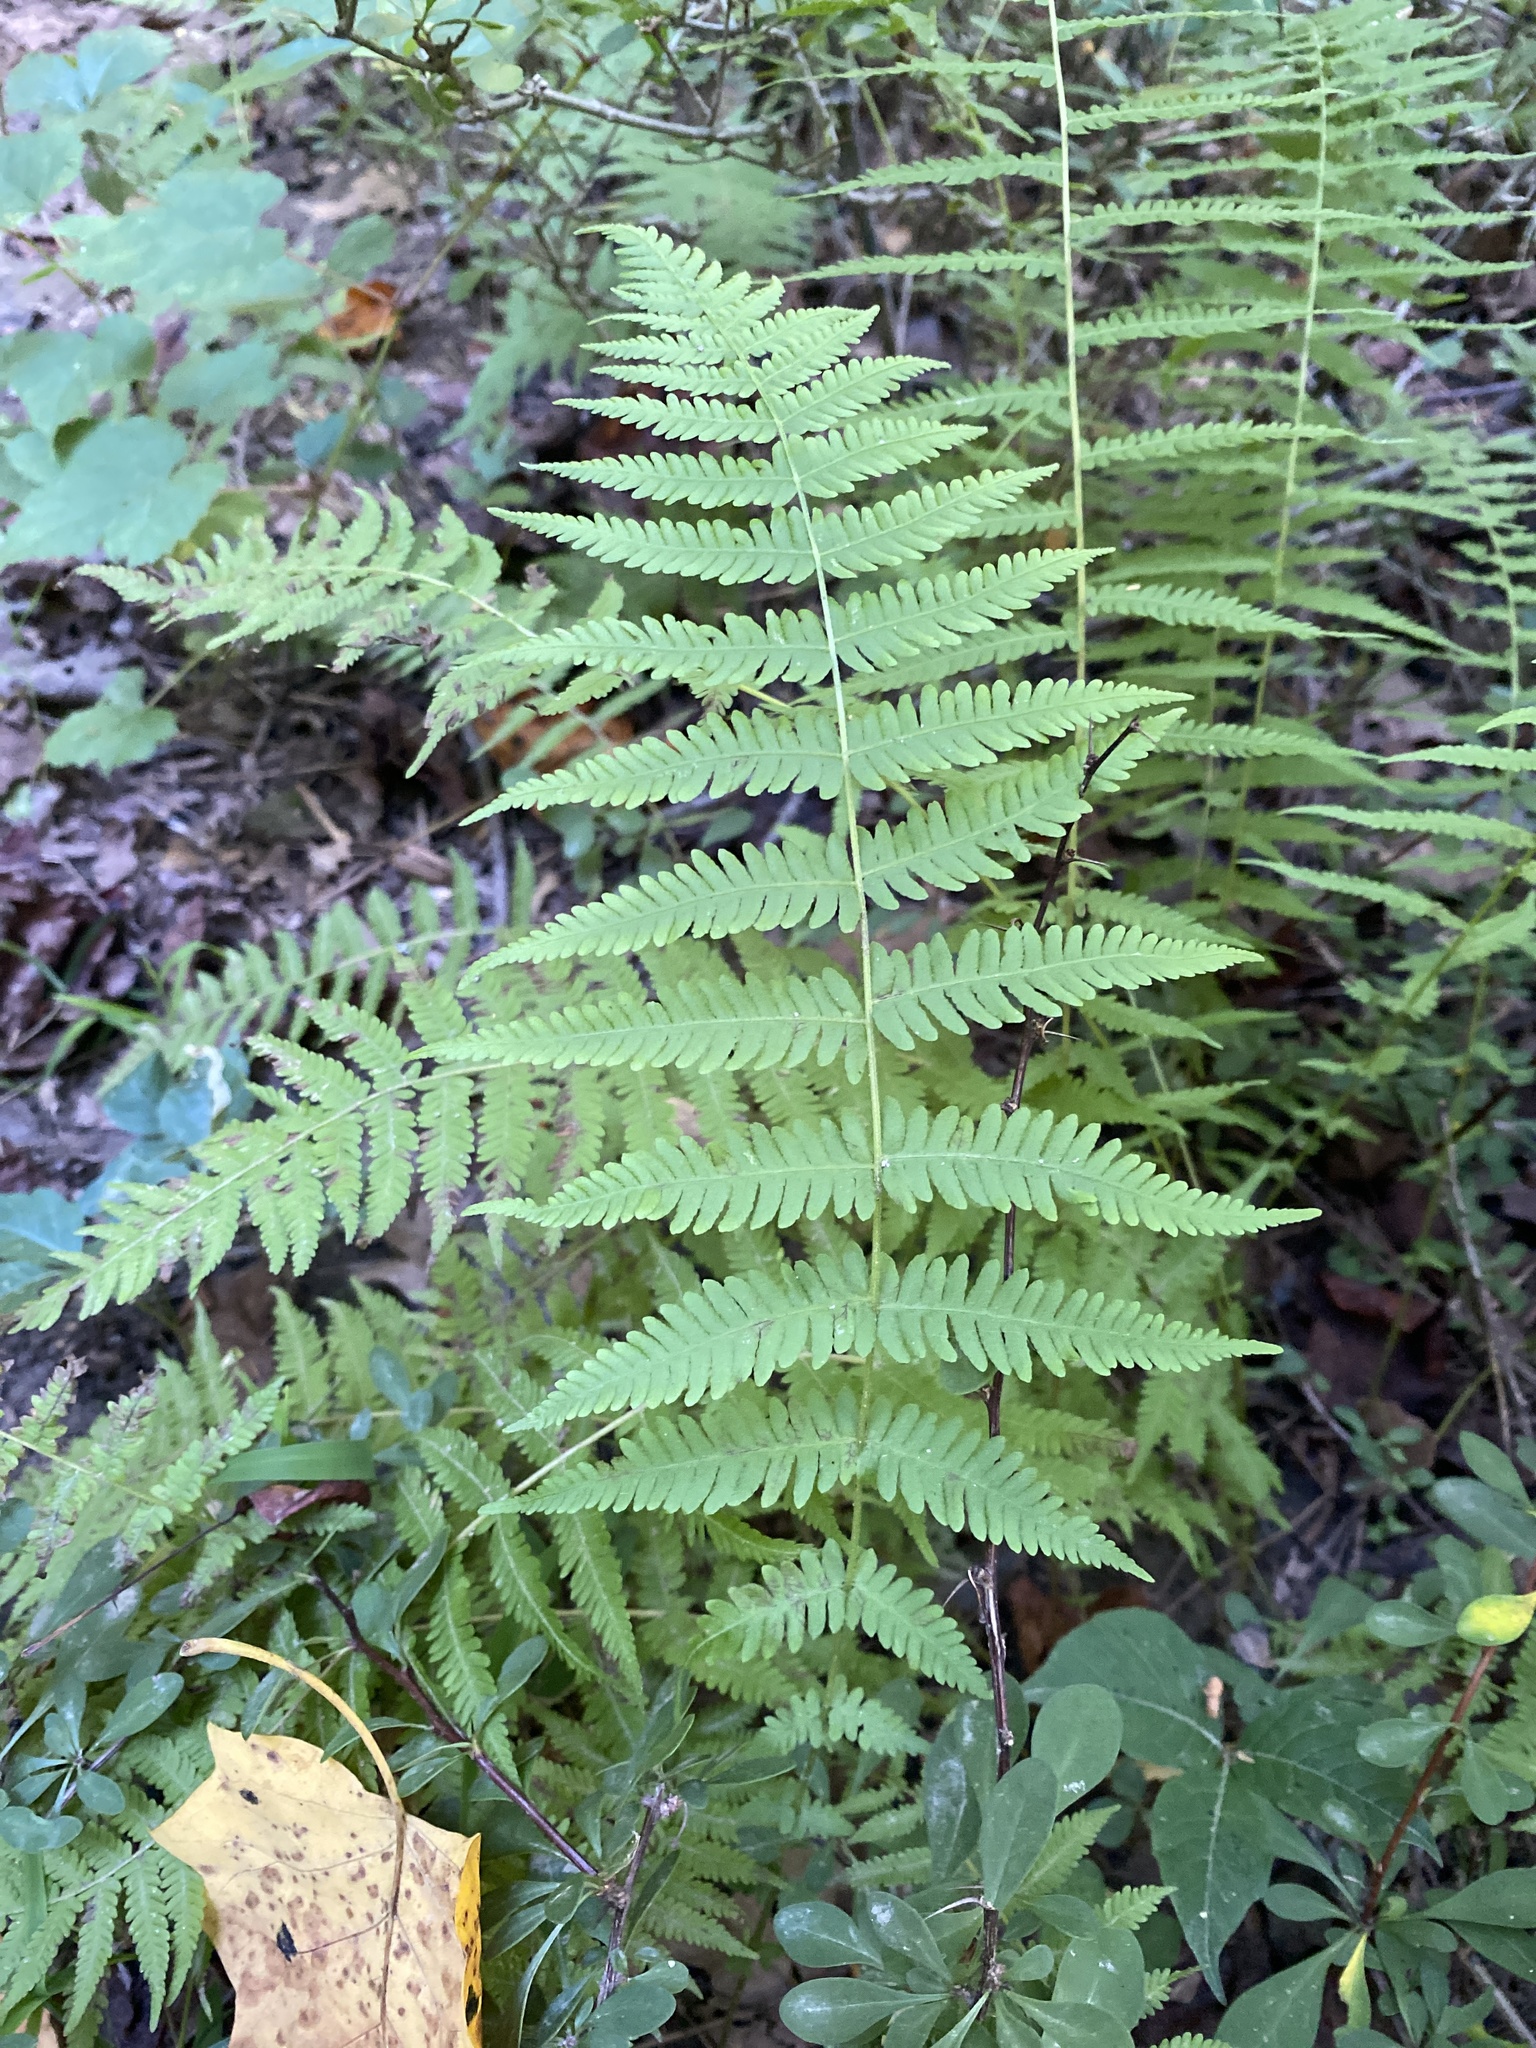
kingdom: Plantae
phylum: Tracheophyta
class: Polypodiopsida
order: Polypodiales
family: Thelypteridaceae
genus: Amauropelta
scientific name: Amauropelta noveboracensis
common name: New york fern
